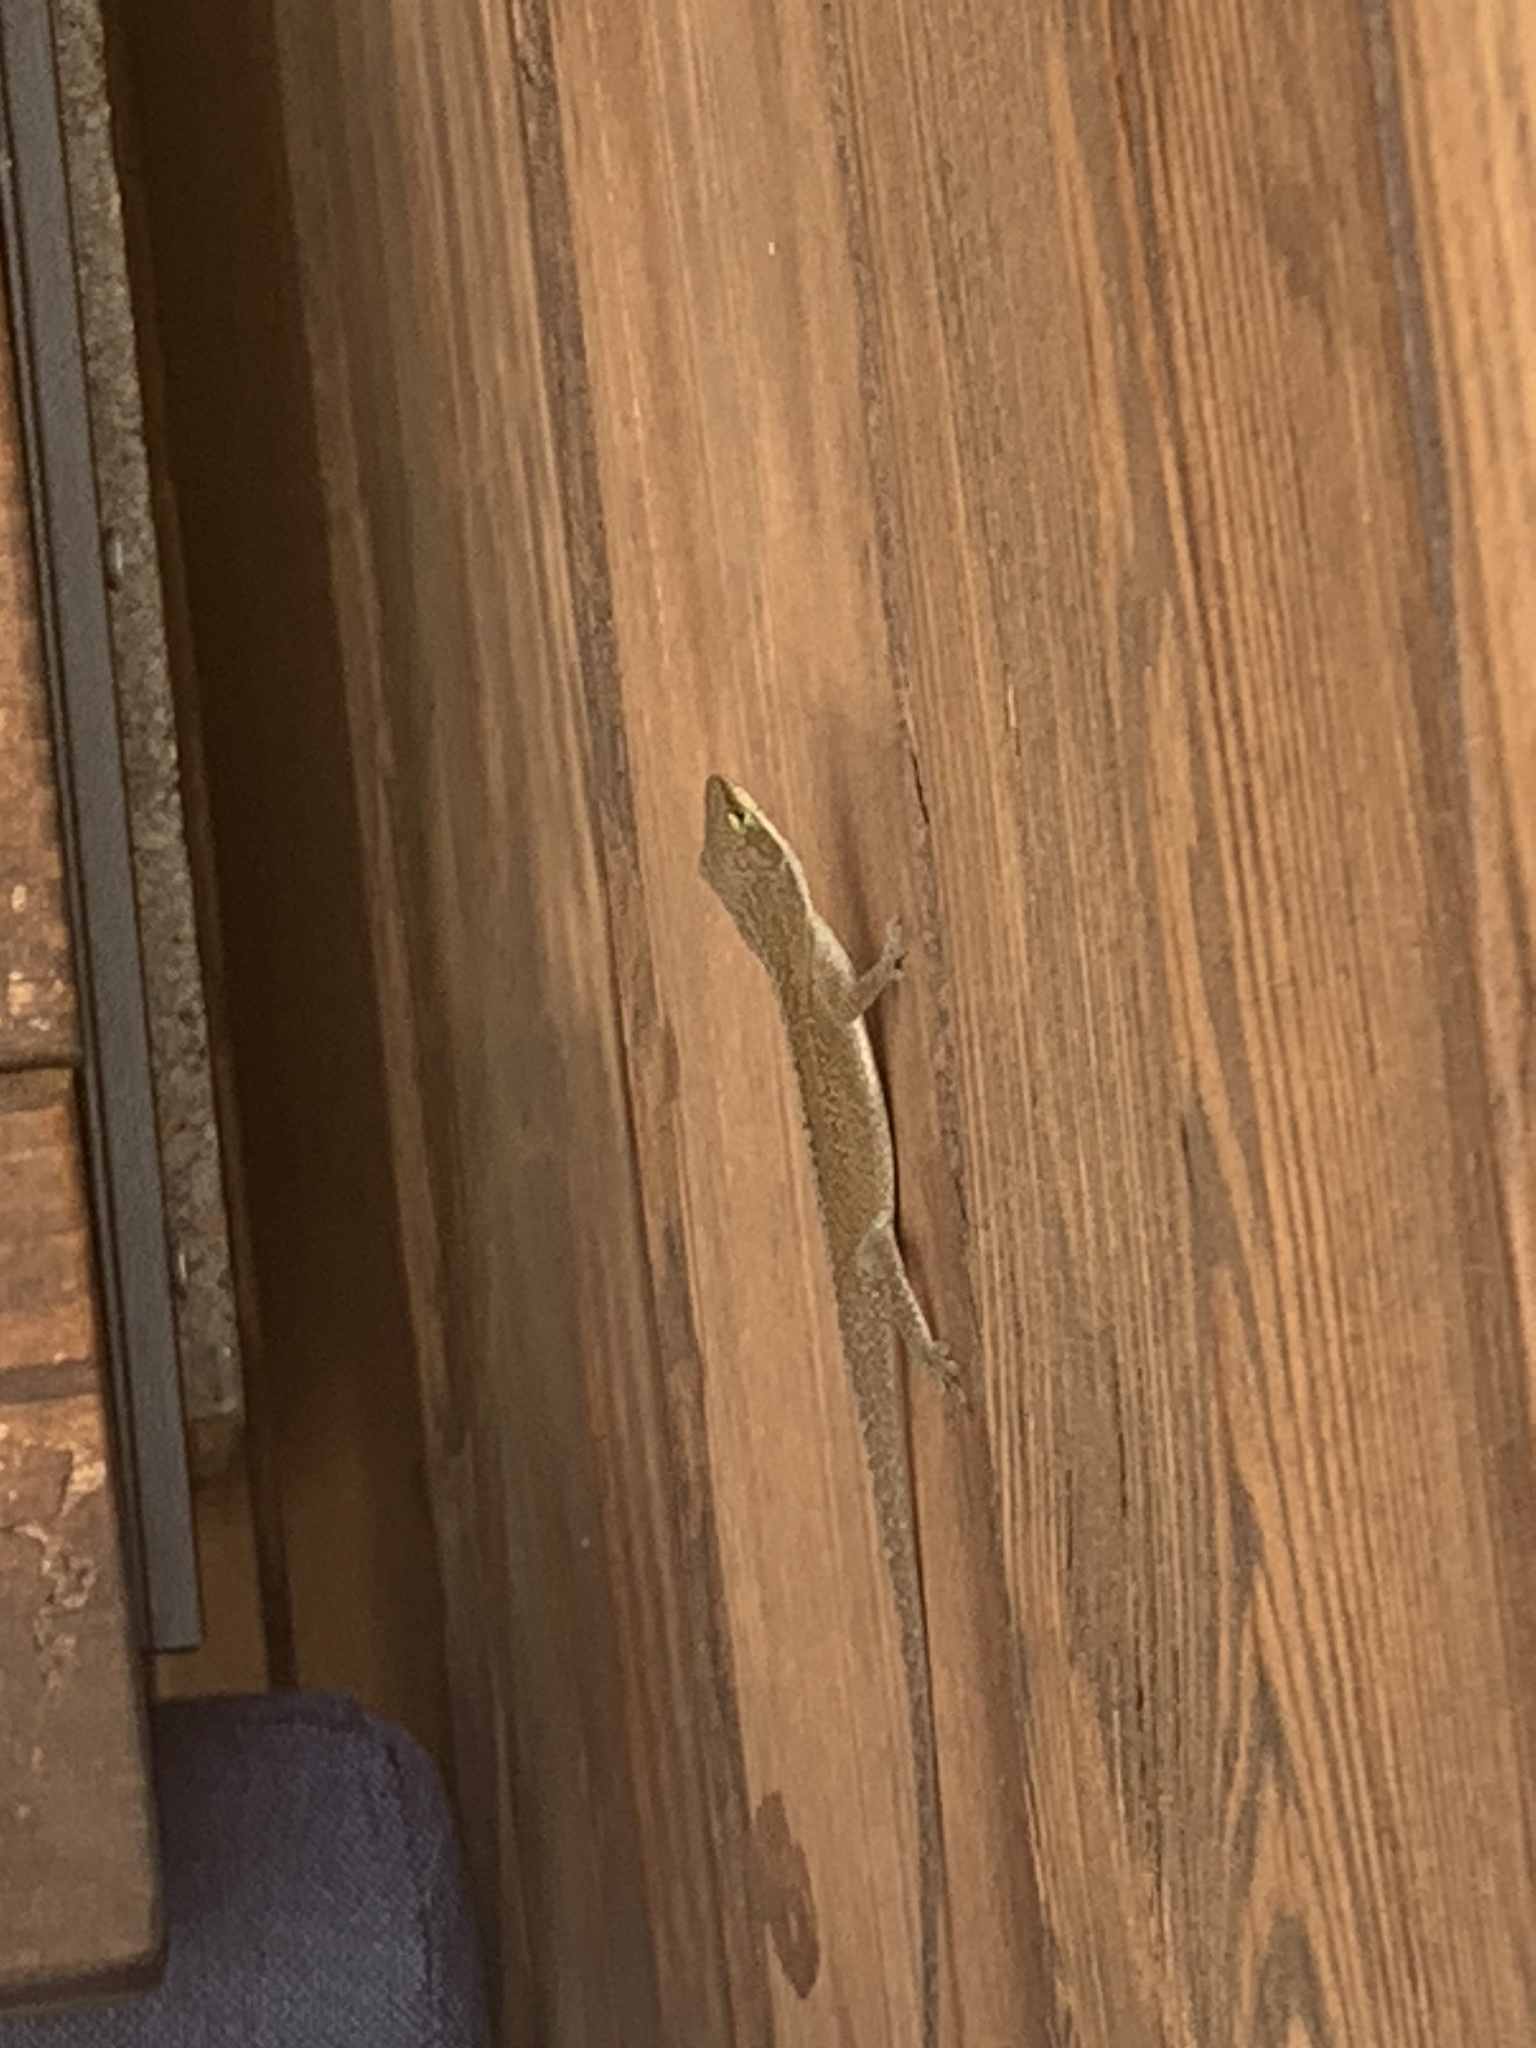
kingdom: Animalia
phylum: Chordata
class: Squamata
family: Dactyloidae
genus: Anolis
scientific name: Anolis carolinensis
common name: Green anole
